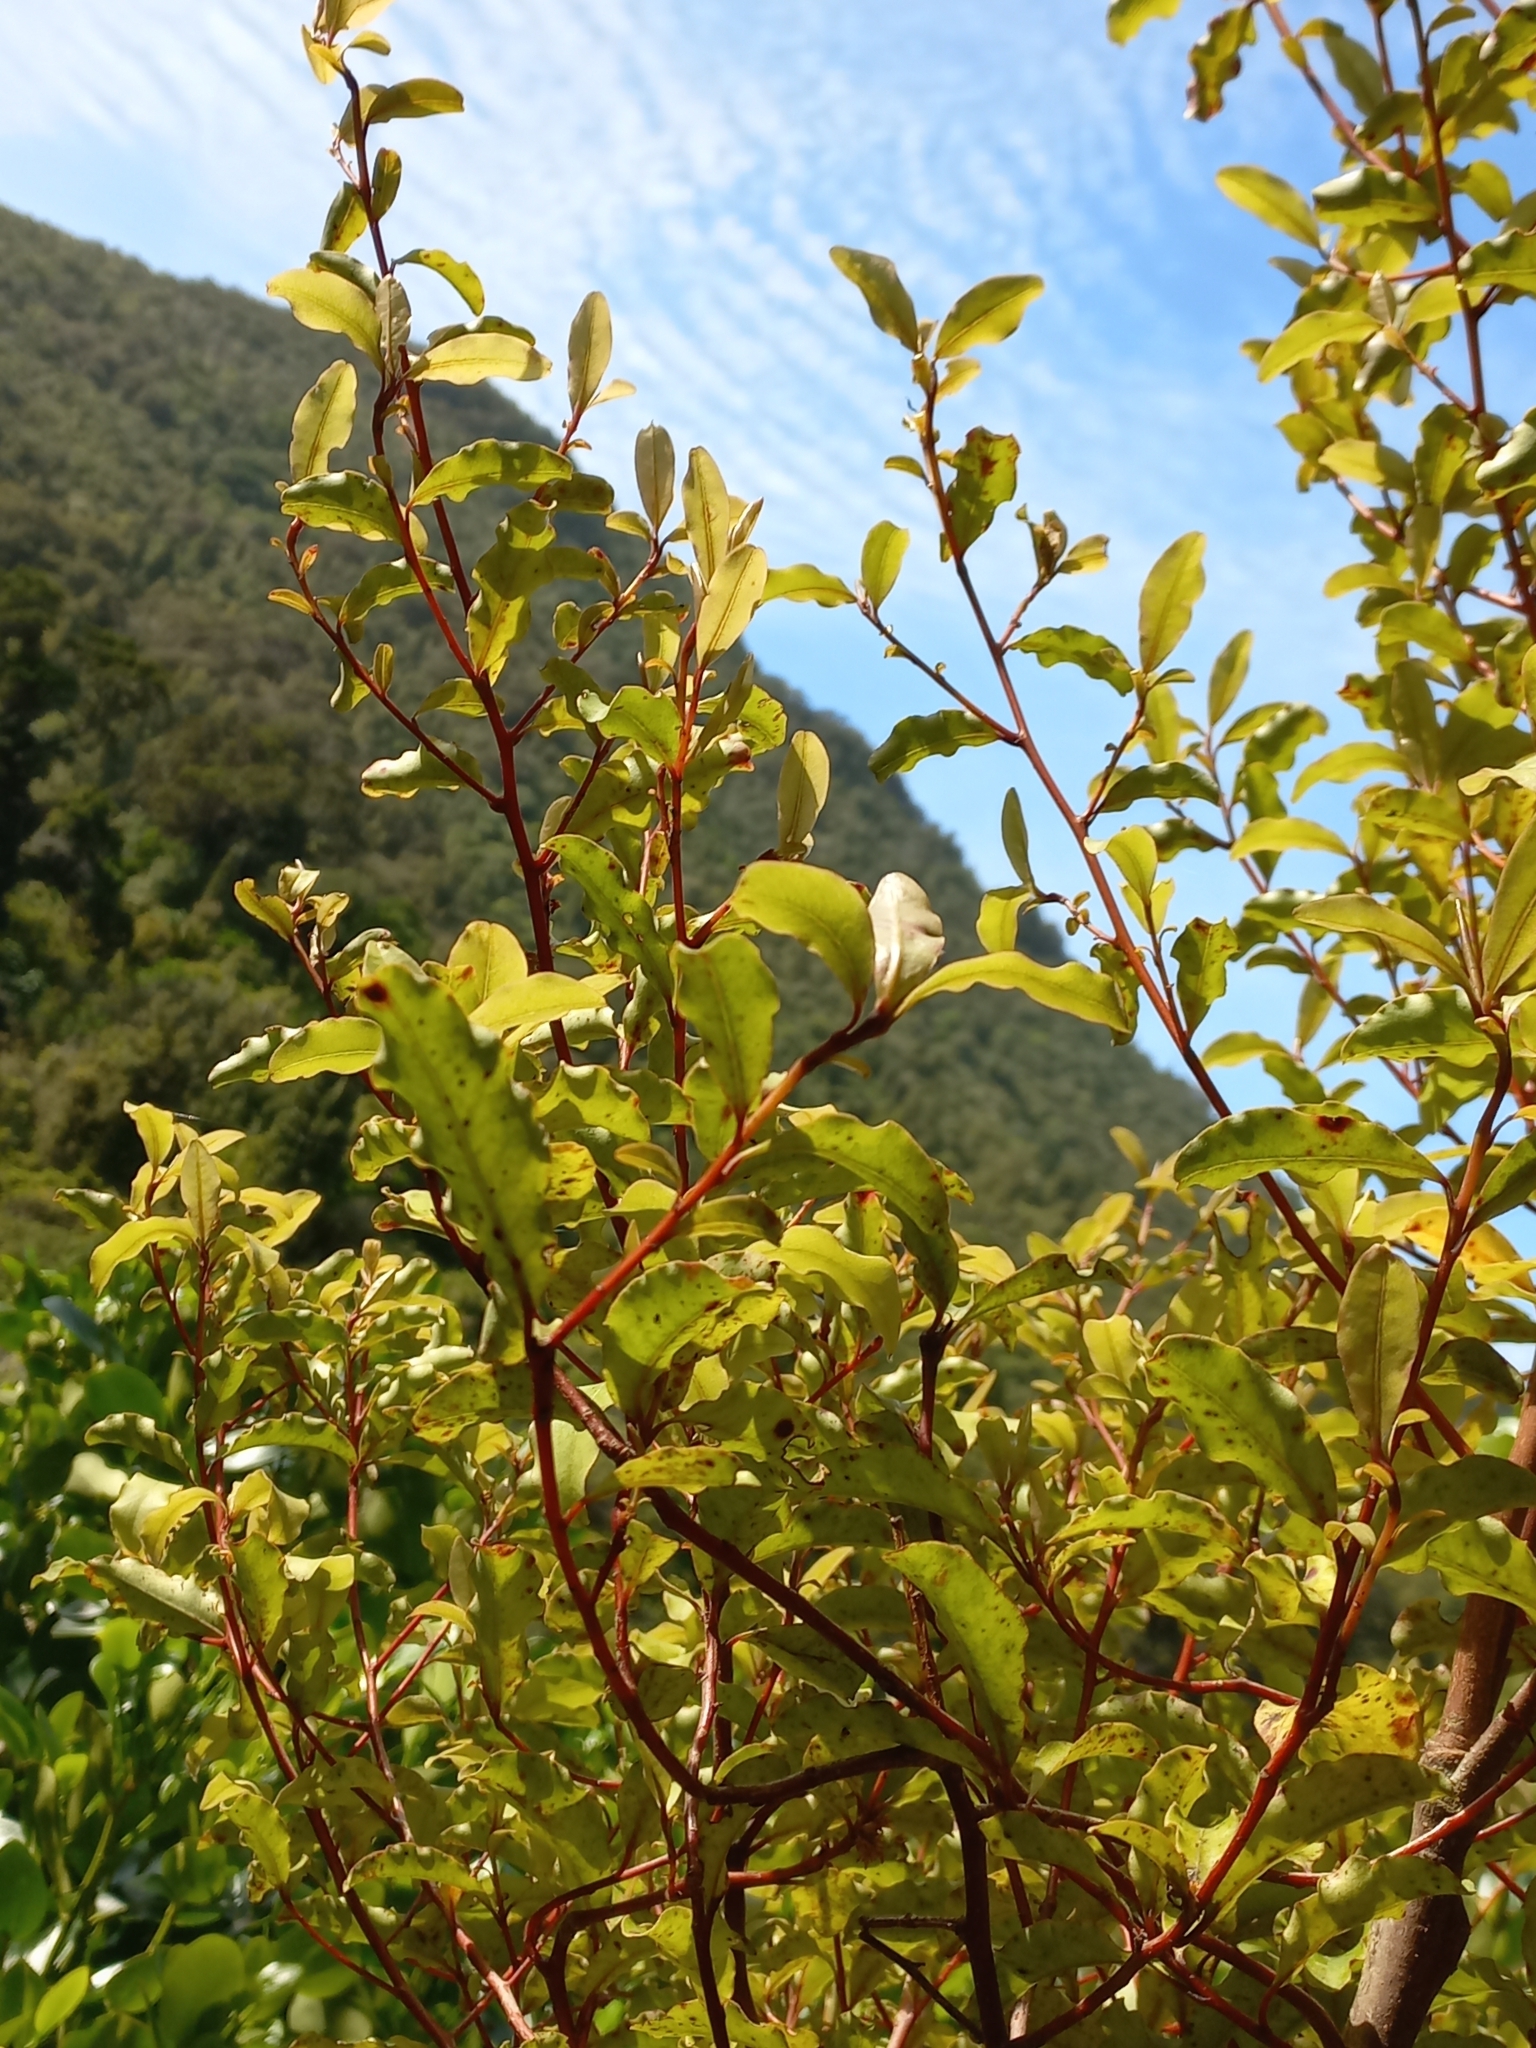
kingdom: Plantae
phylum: Tracheophyta
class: Magnoliopsida
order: Ericales
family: Primulaceae
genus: Myrsine
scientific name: Myrsine australis
